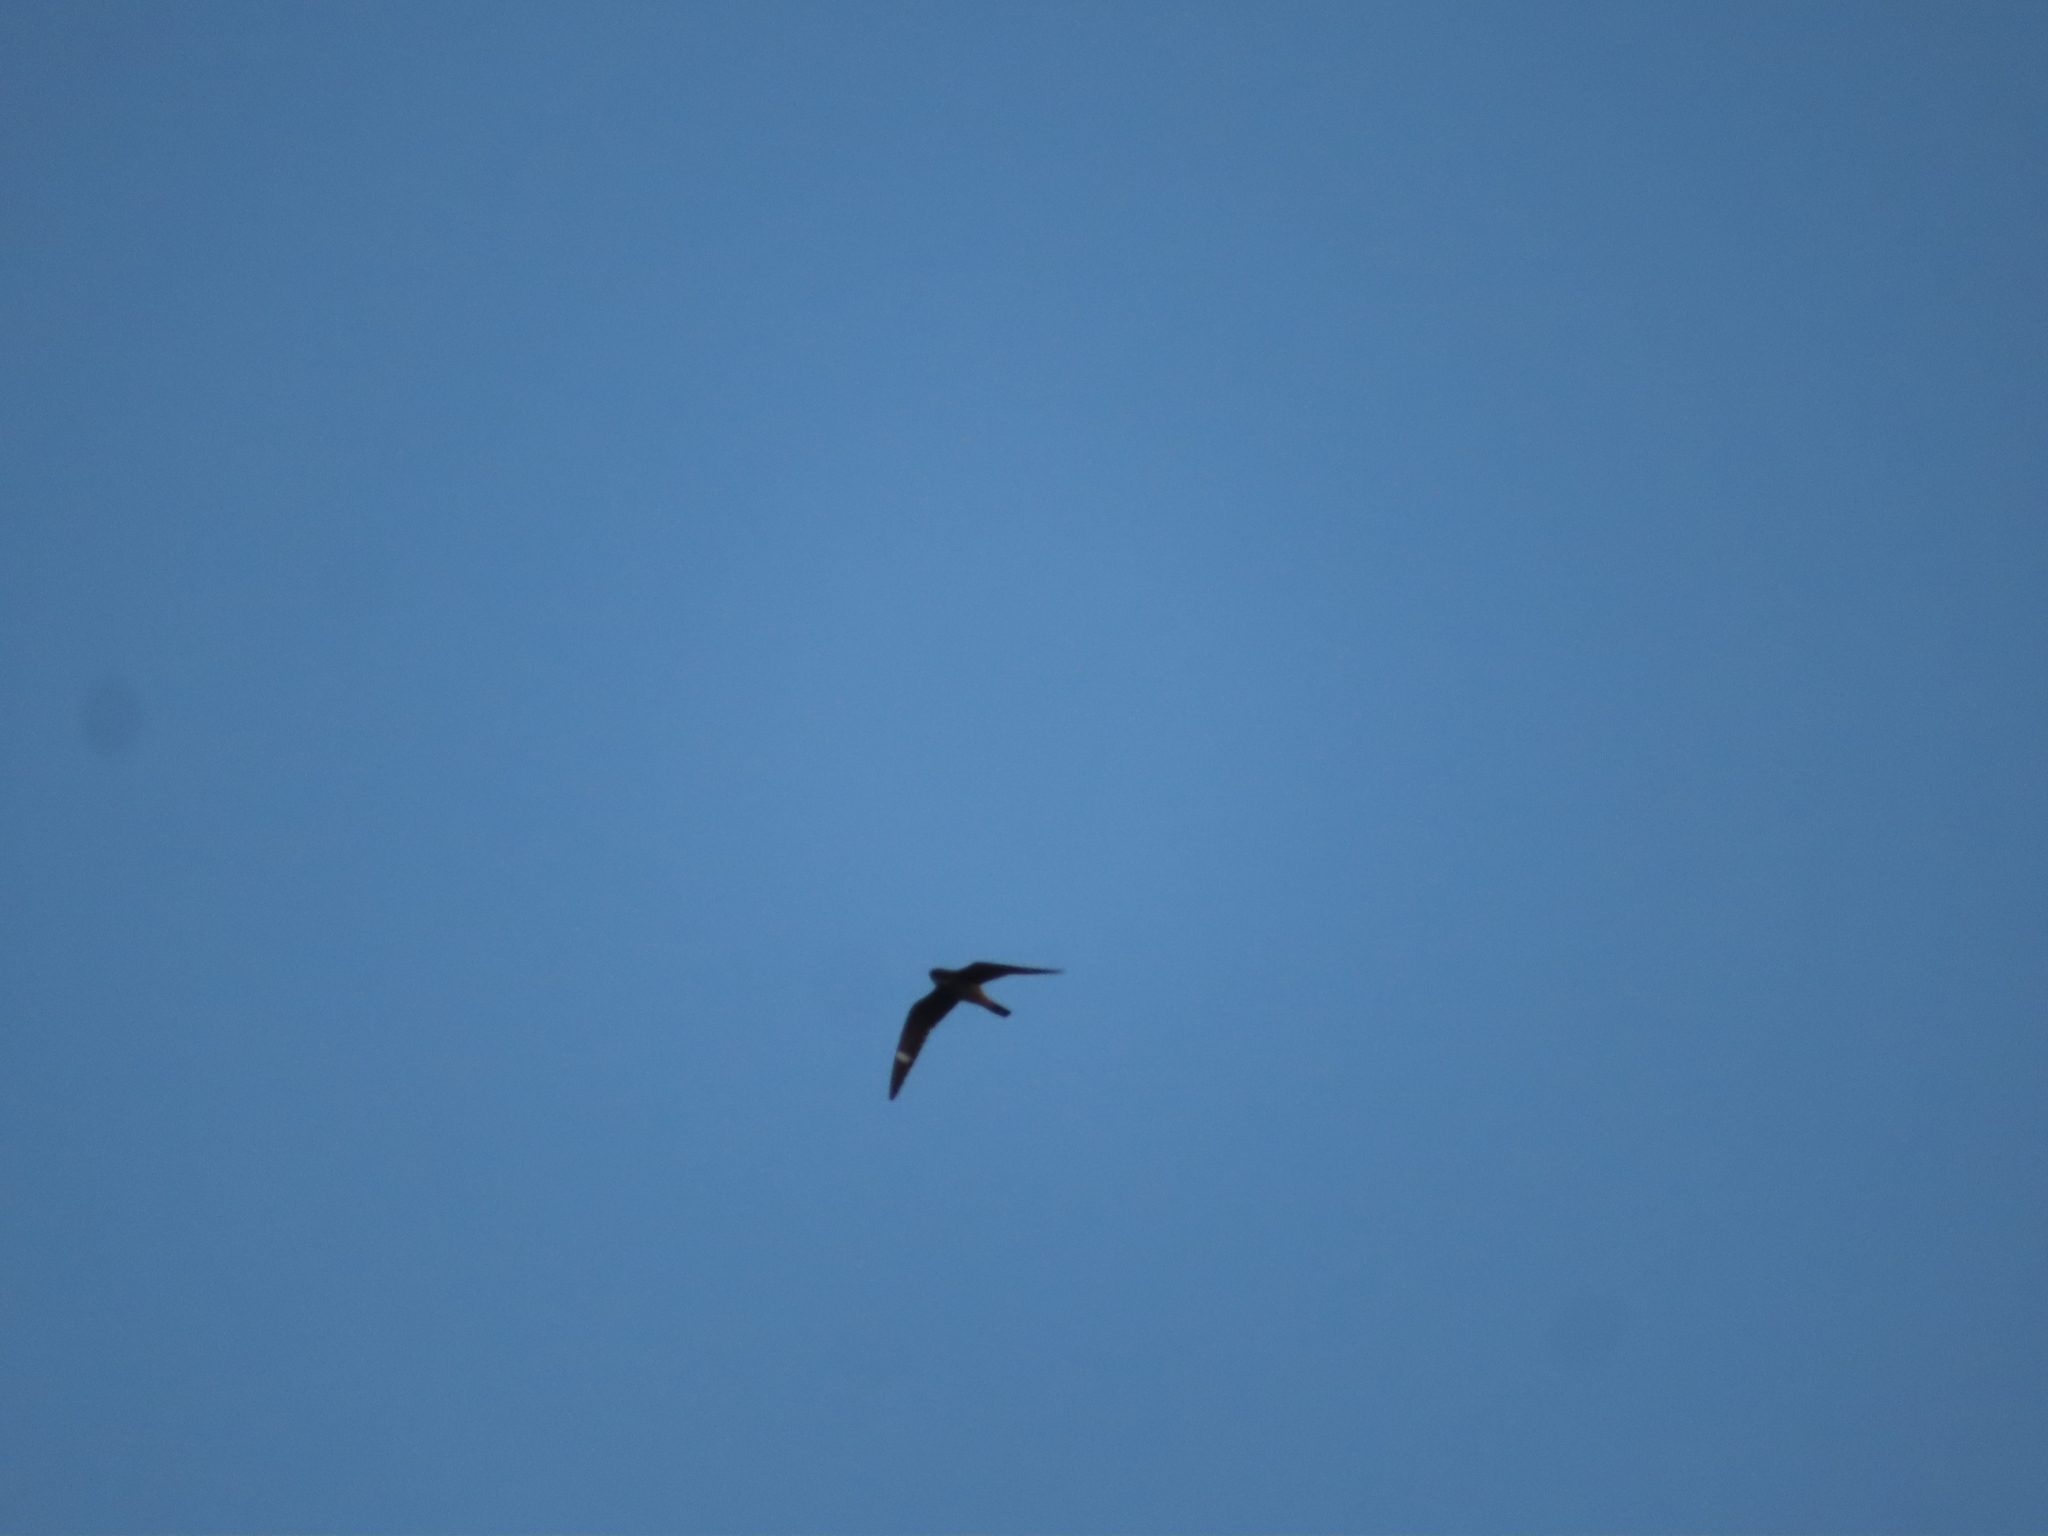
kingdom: Animalia
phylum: Chordata
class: Aves
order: Caprimulgiformes
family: Caprimulgidae
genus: Chordeiles
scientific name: Chordeiles gundlachii
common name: Antillean nighthawk
